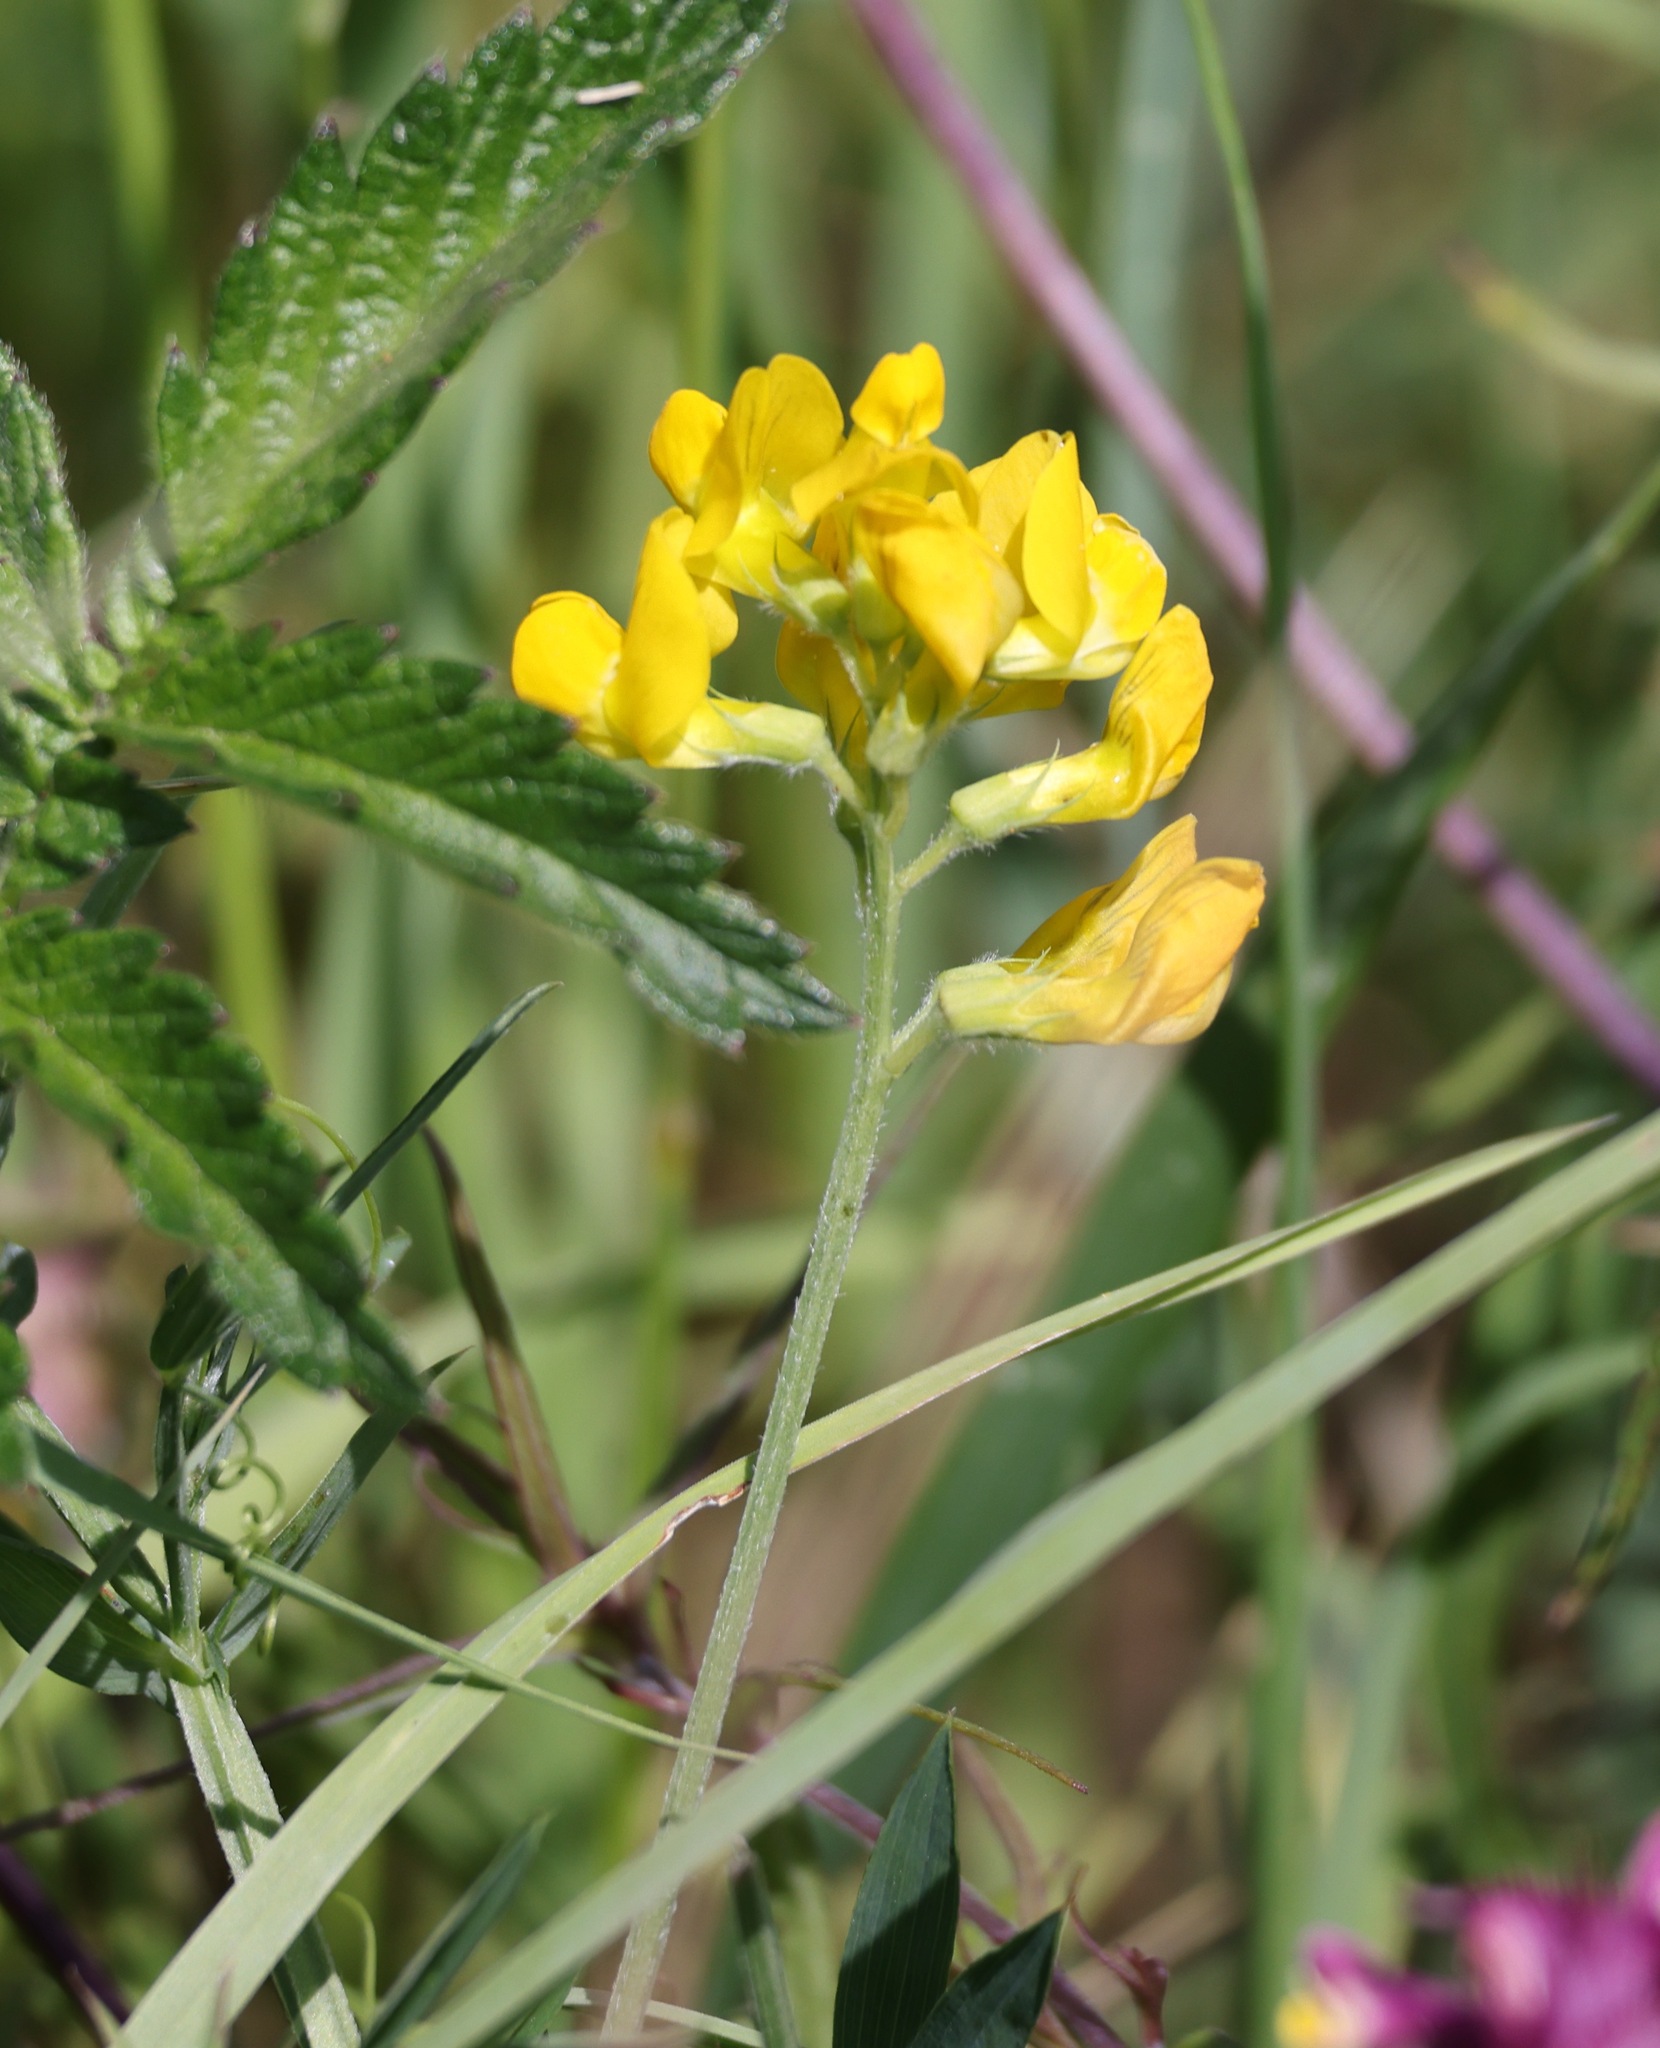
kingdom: Plantae
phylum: Tracheophyta
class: Magnoliopsida
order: Fabales
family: Fabaceae
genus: Lathyrus
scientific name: Lathyrus pratensis
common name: Meadow vetchling
